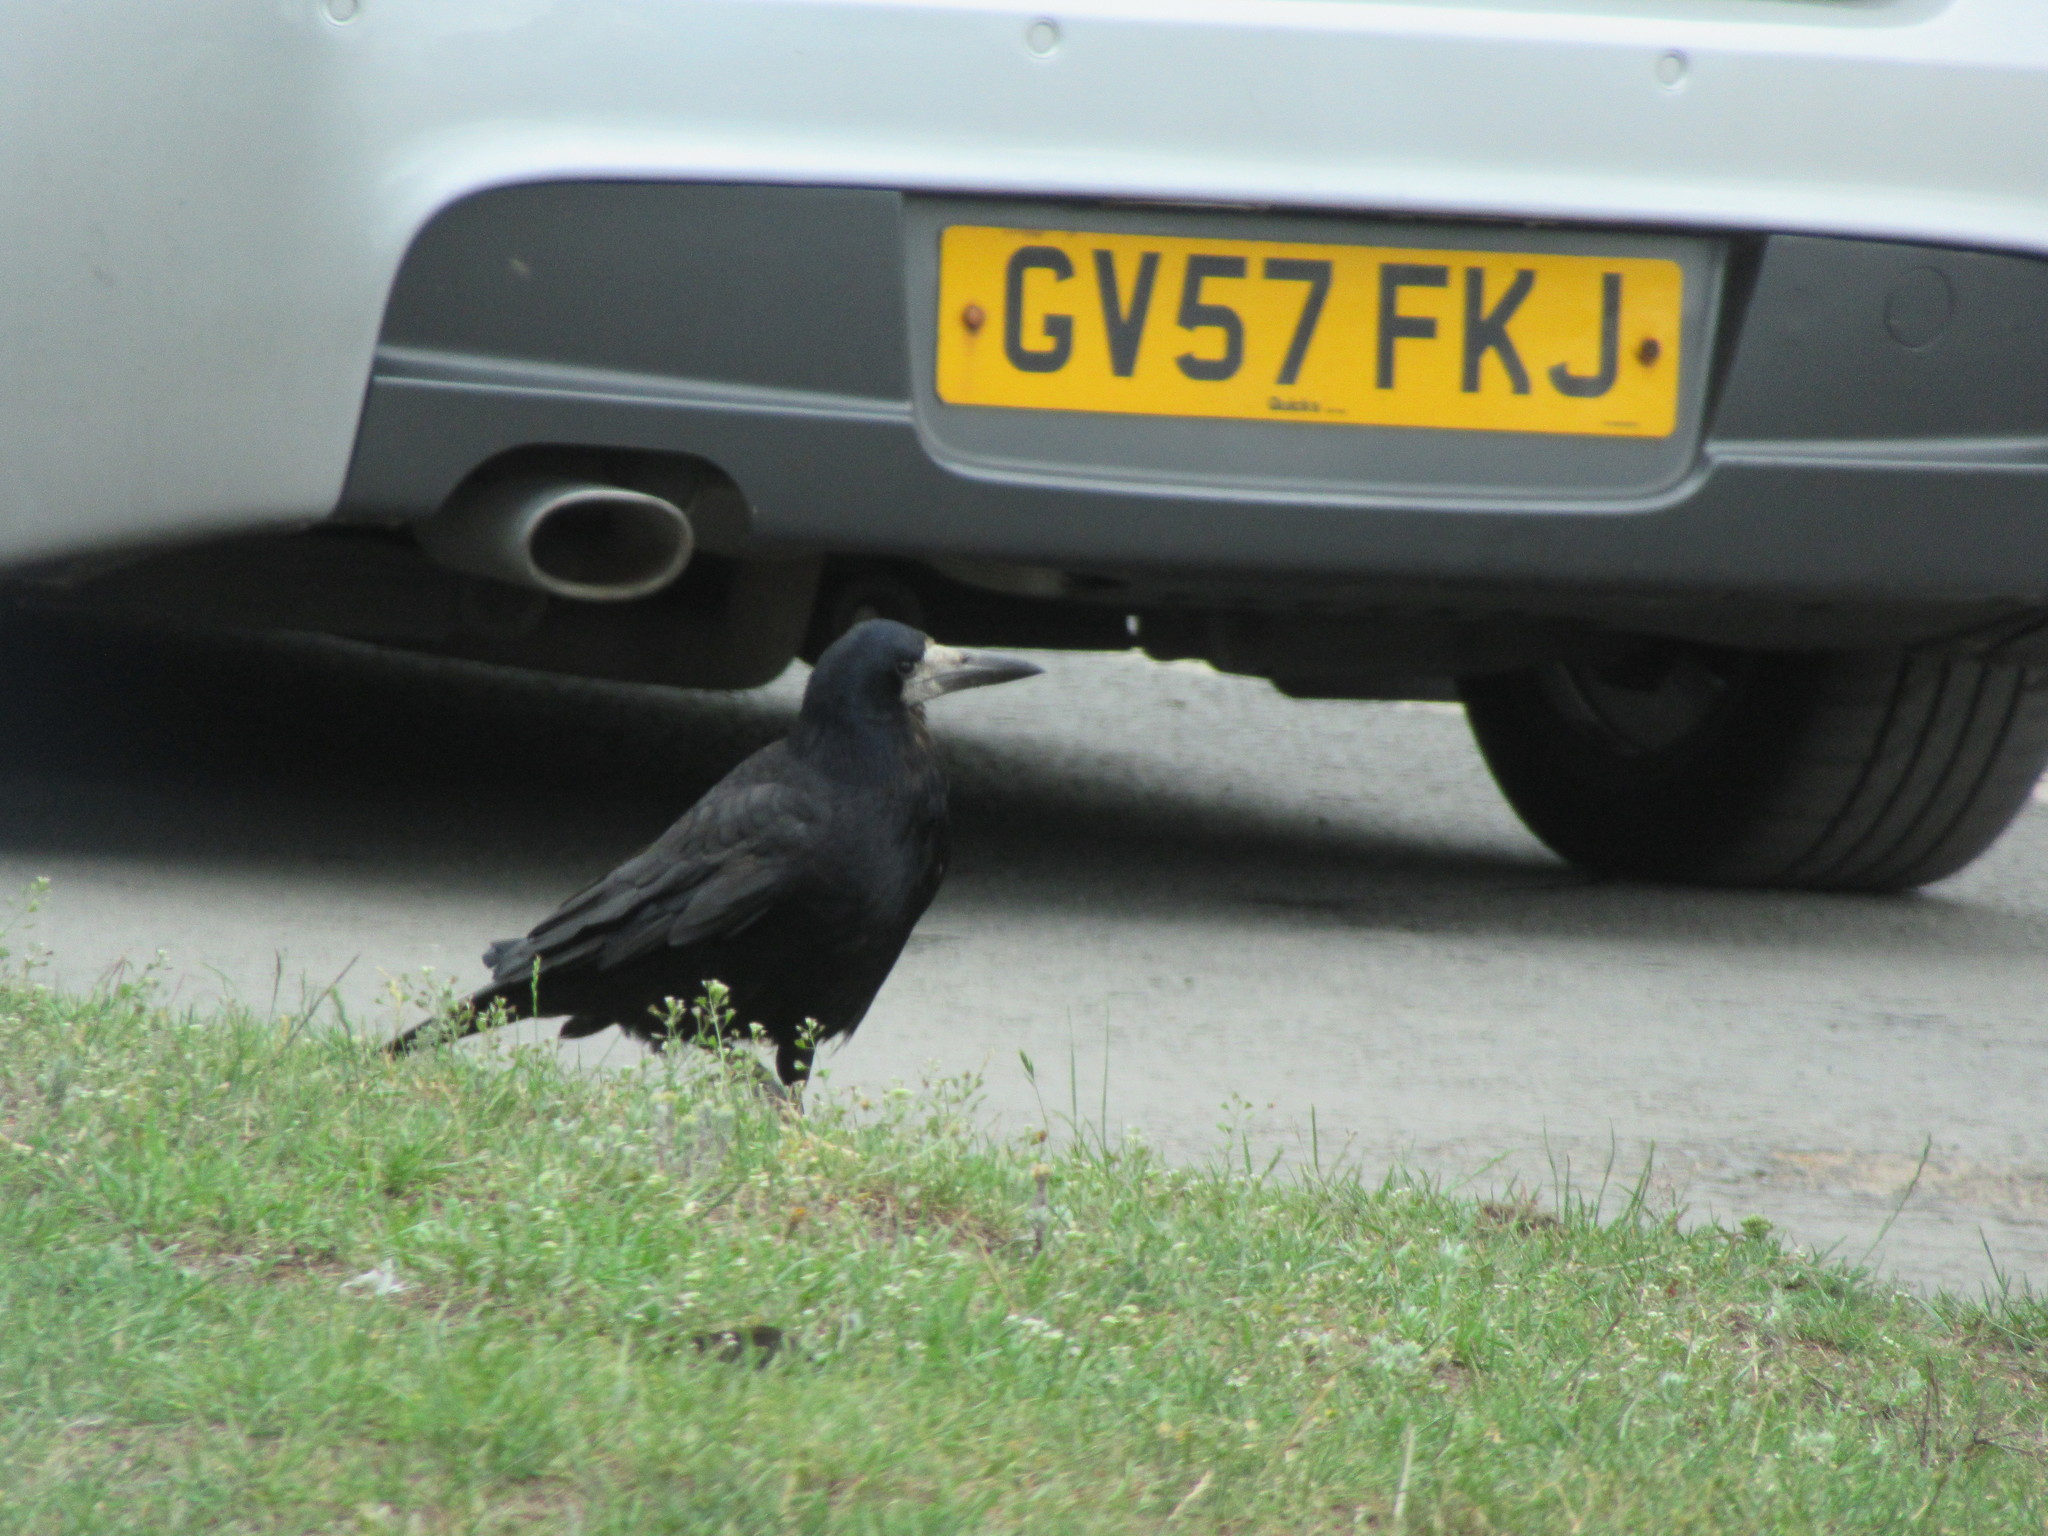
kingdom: Animalia
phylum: Chordata
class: Aves
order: Passeriformes
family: Corvidae
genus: Corvus
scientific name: Corvus frugilegus
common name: Rook
